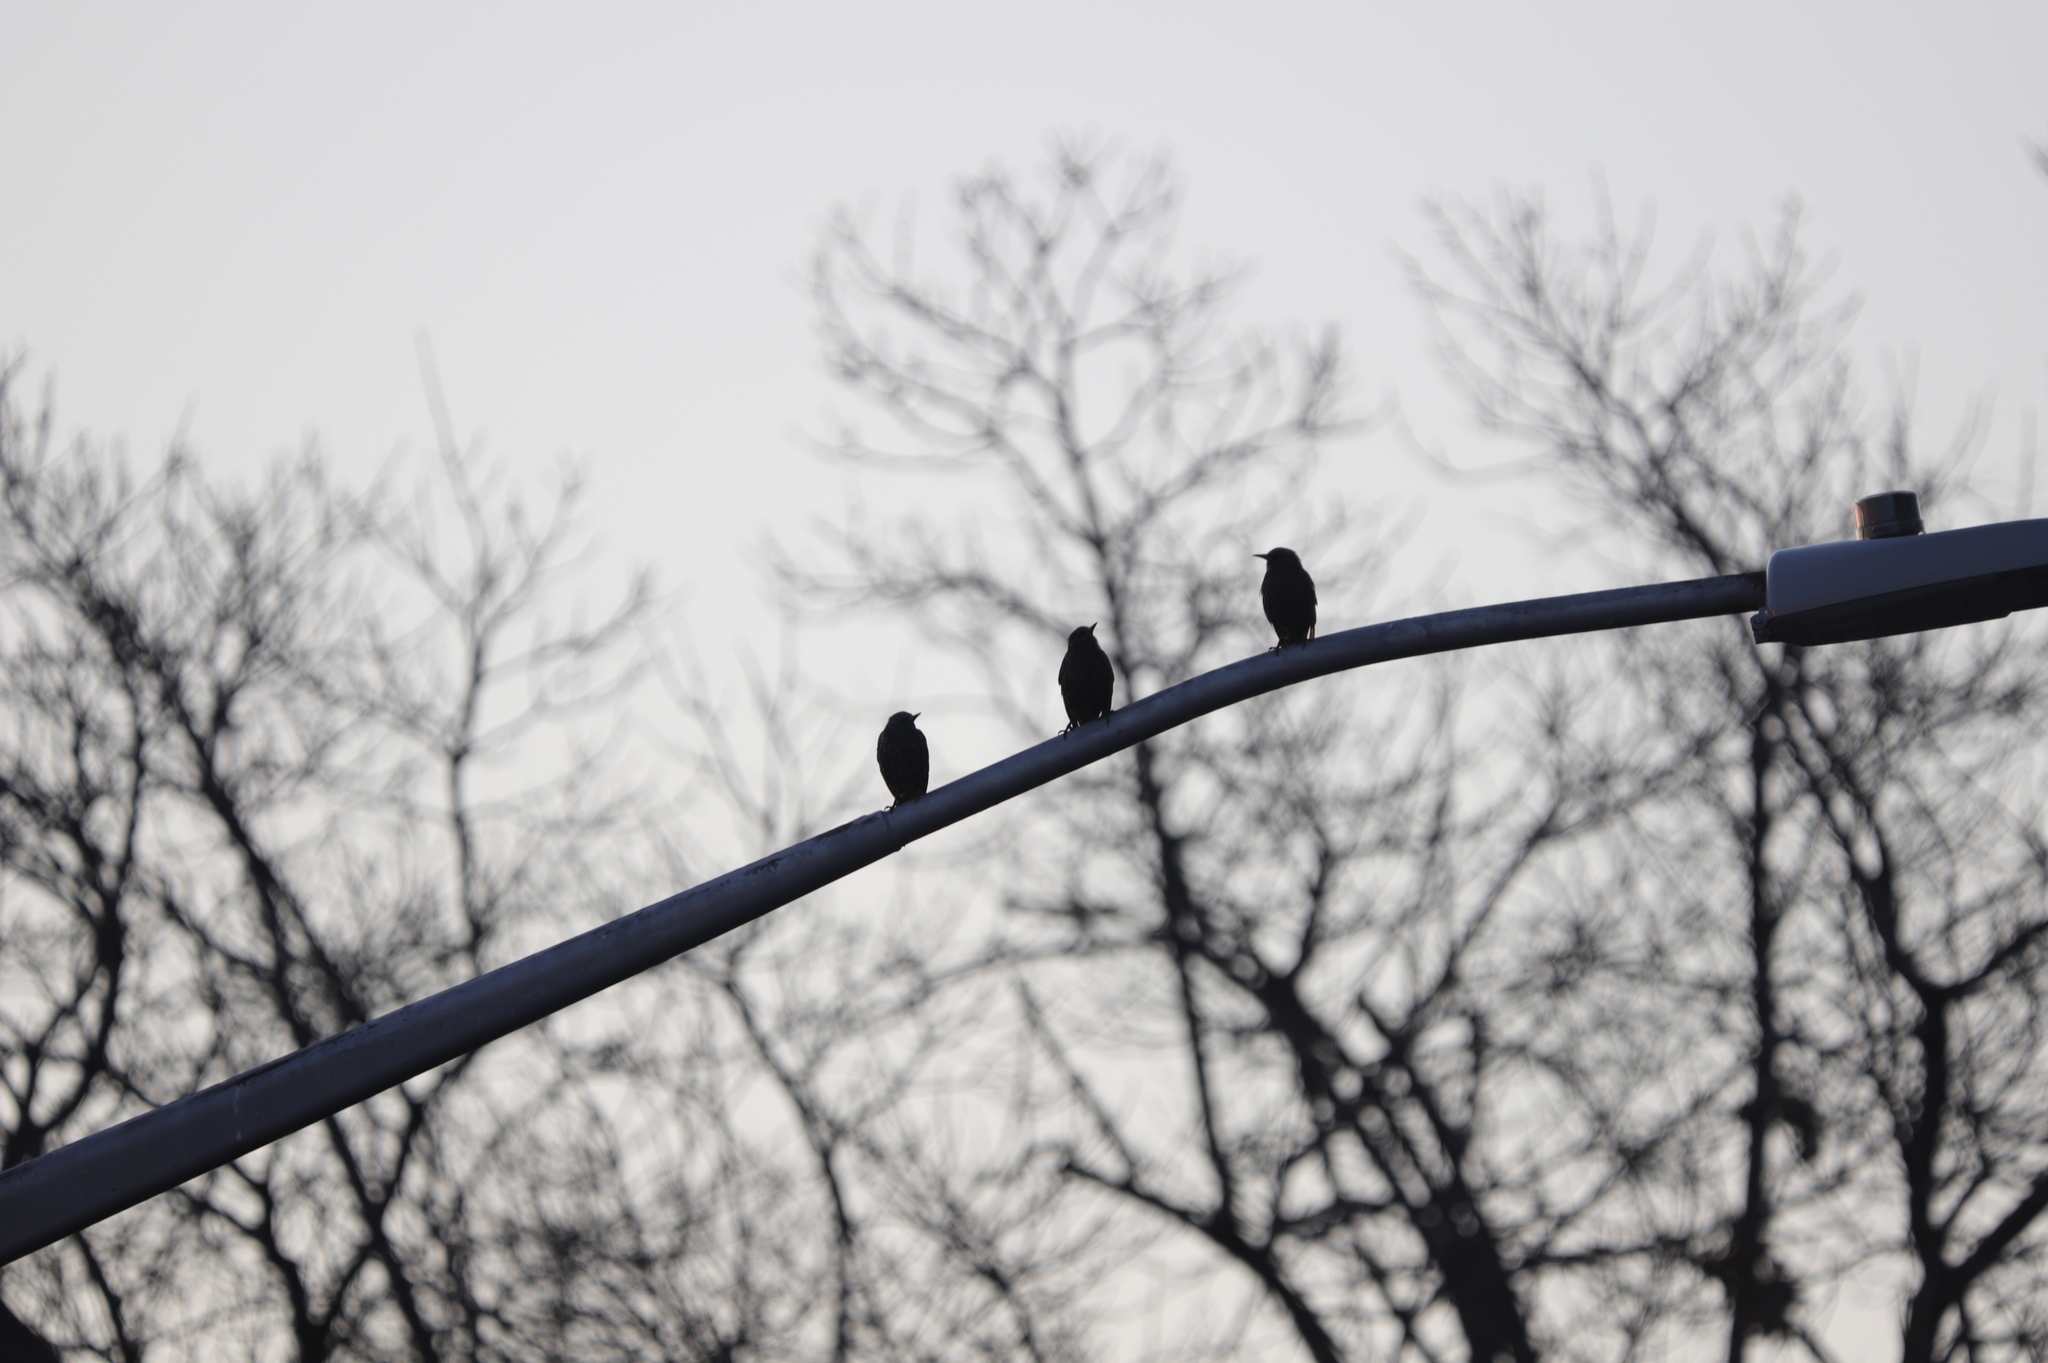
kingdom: Animalia
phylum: Chordata
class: Aves
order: Passeriformes
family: Sturnidae
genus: Sturnus
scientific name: Sturnus vulgaris
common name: Common starling
